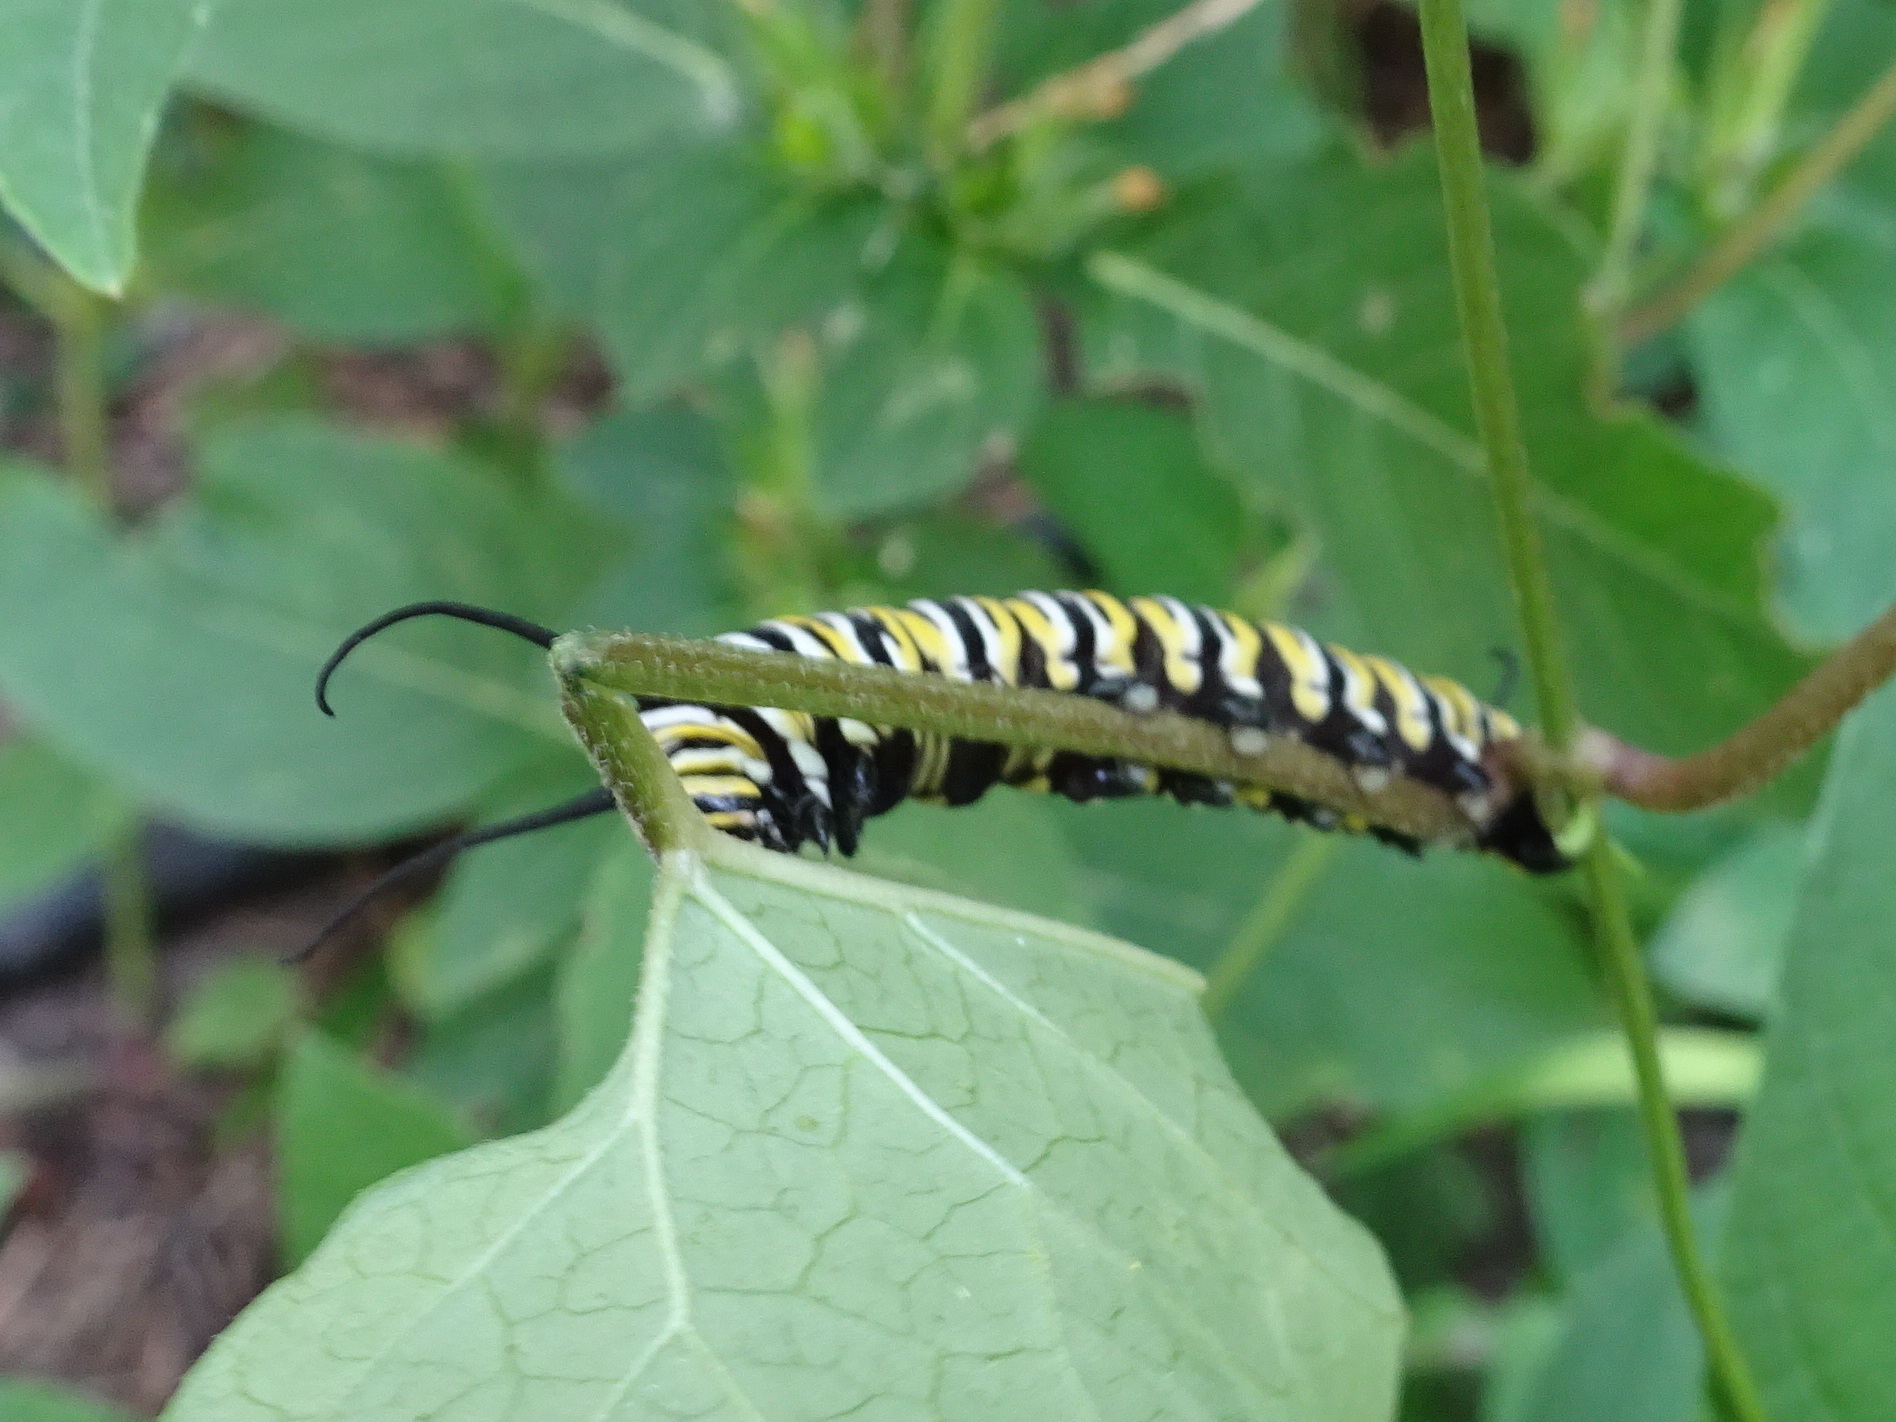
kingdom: Animalia
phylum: Arthropoda
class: Insecta
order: Lepidoptera
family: Nymphalidae
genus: Danaus
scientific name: Danaus plexippus
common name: Monarch
